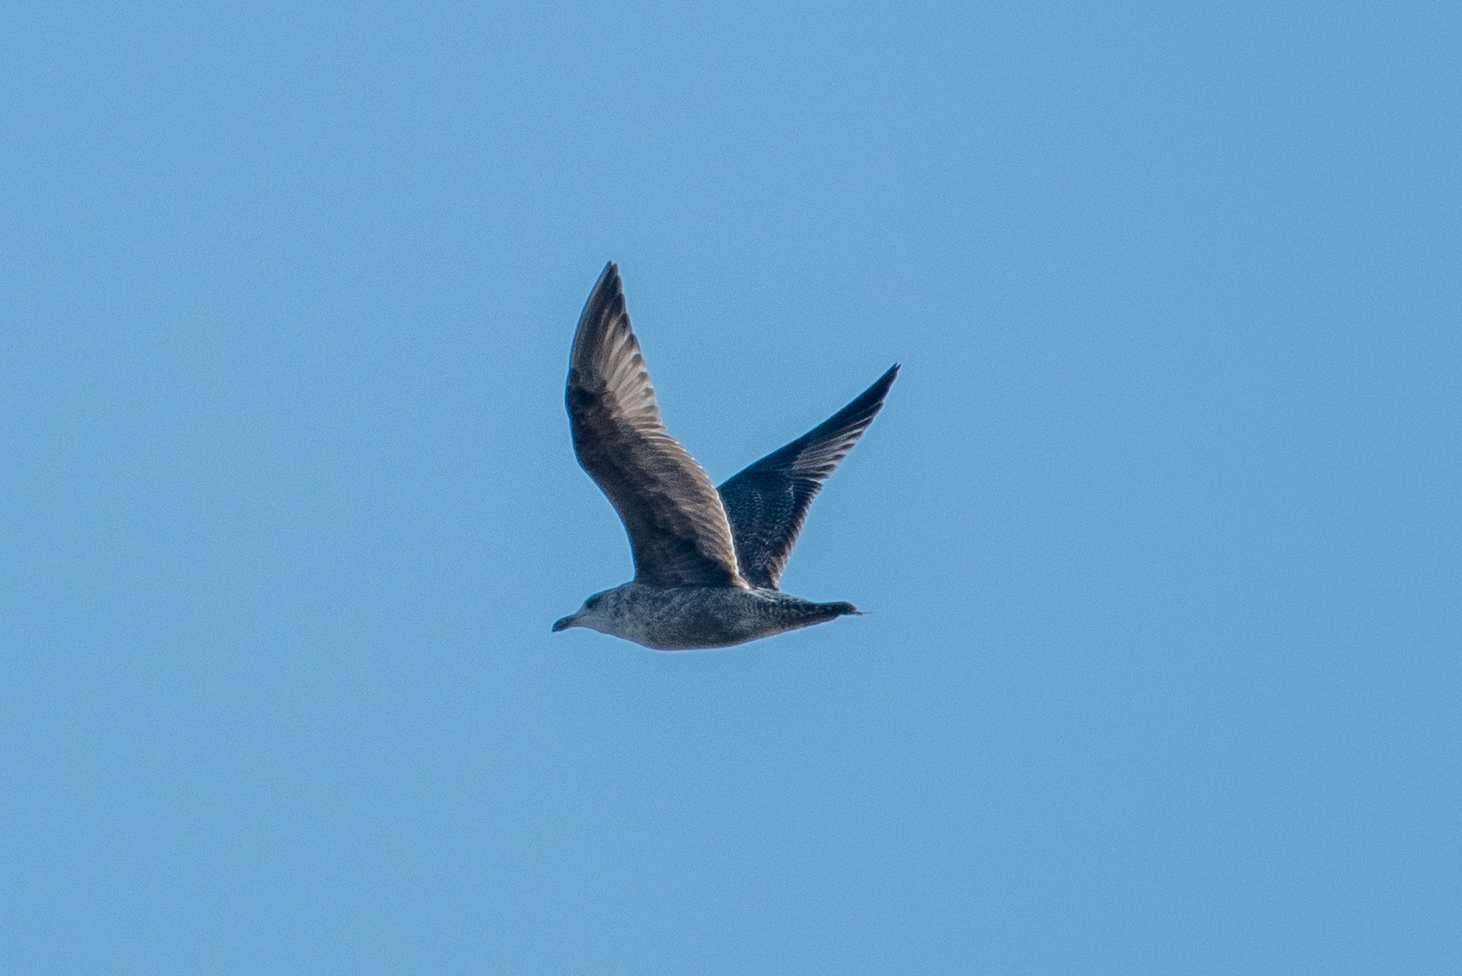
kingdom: Animalia
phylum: Chordata
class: Aves
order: Charadriiformes
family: Laridae
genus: Larus
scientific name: Larus argentatus
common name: Herring gull
